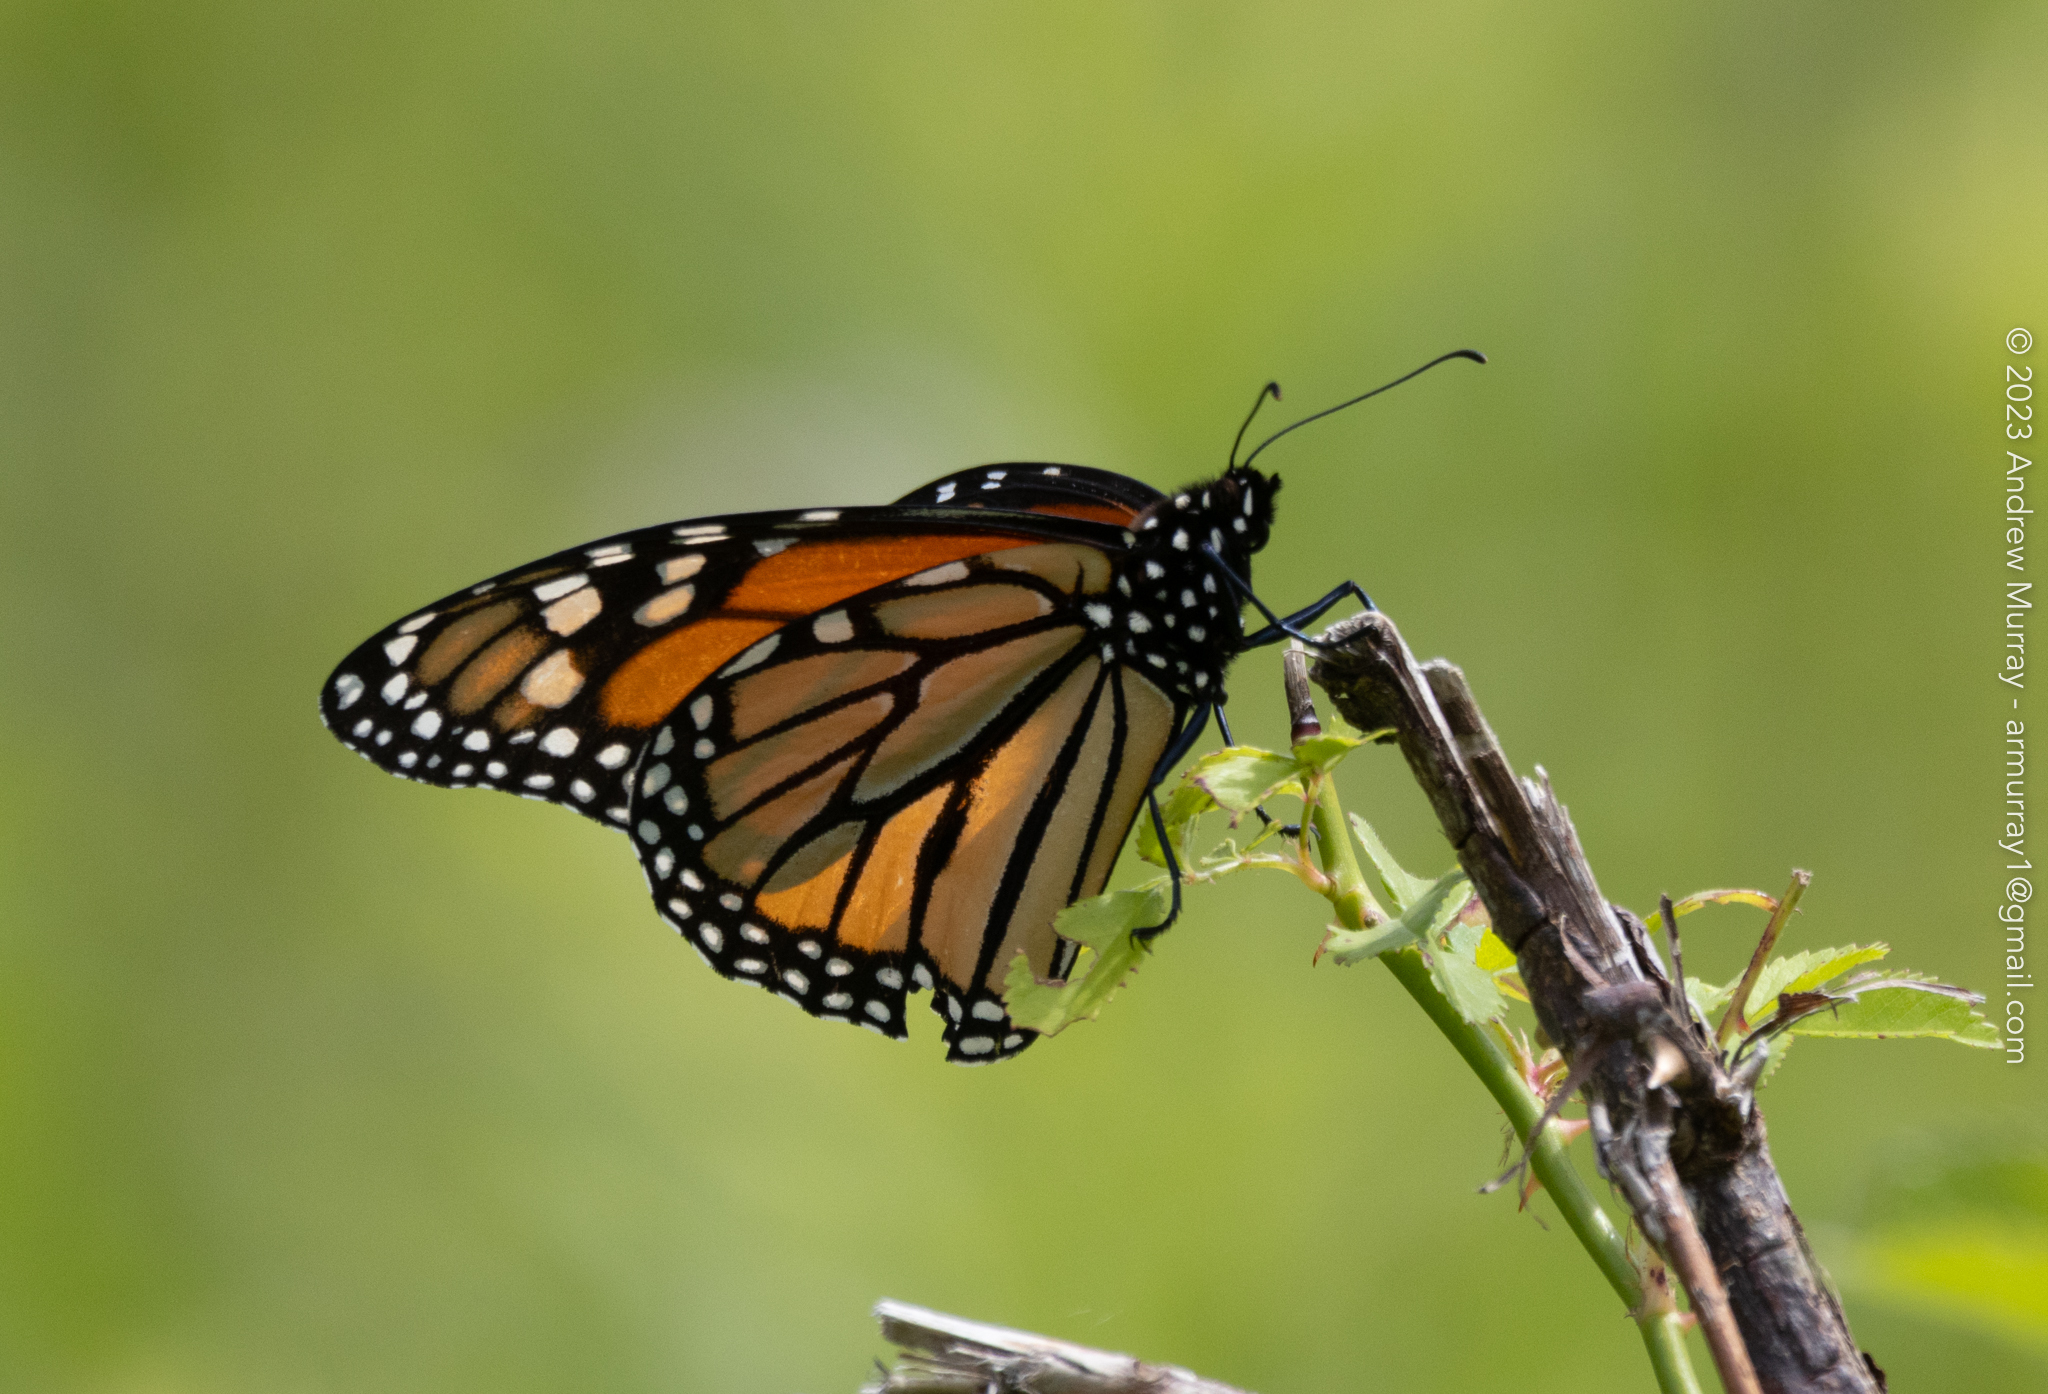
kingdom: Animalia
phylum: Arthropoda
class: Insecta
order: Lepidoptera
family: Nymphalidae
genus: Danaus
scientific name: Danaus plexippus
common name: Monarch
